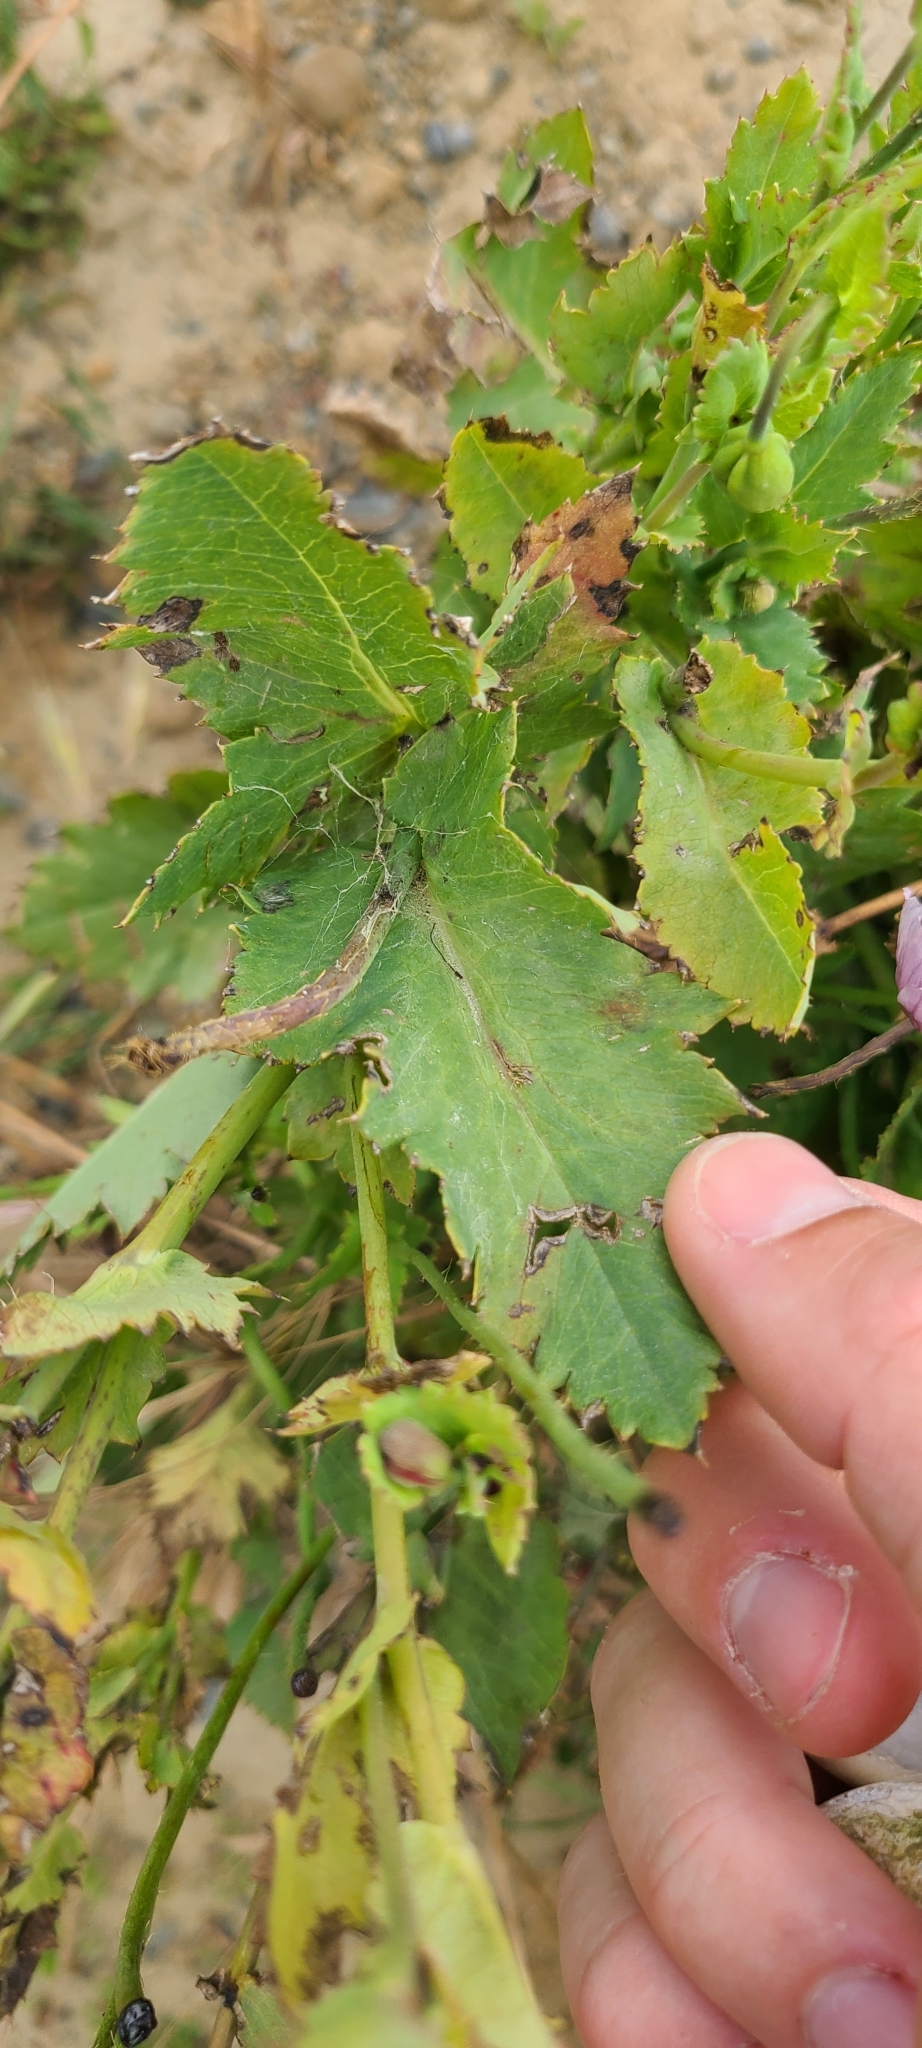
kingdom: Plantae
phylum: Tracheophyta
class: Magnoliopsida
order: Ranunculales
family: Papaveraceae
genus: Papaver
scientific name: Papaver somniferum
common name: Opium poppy
